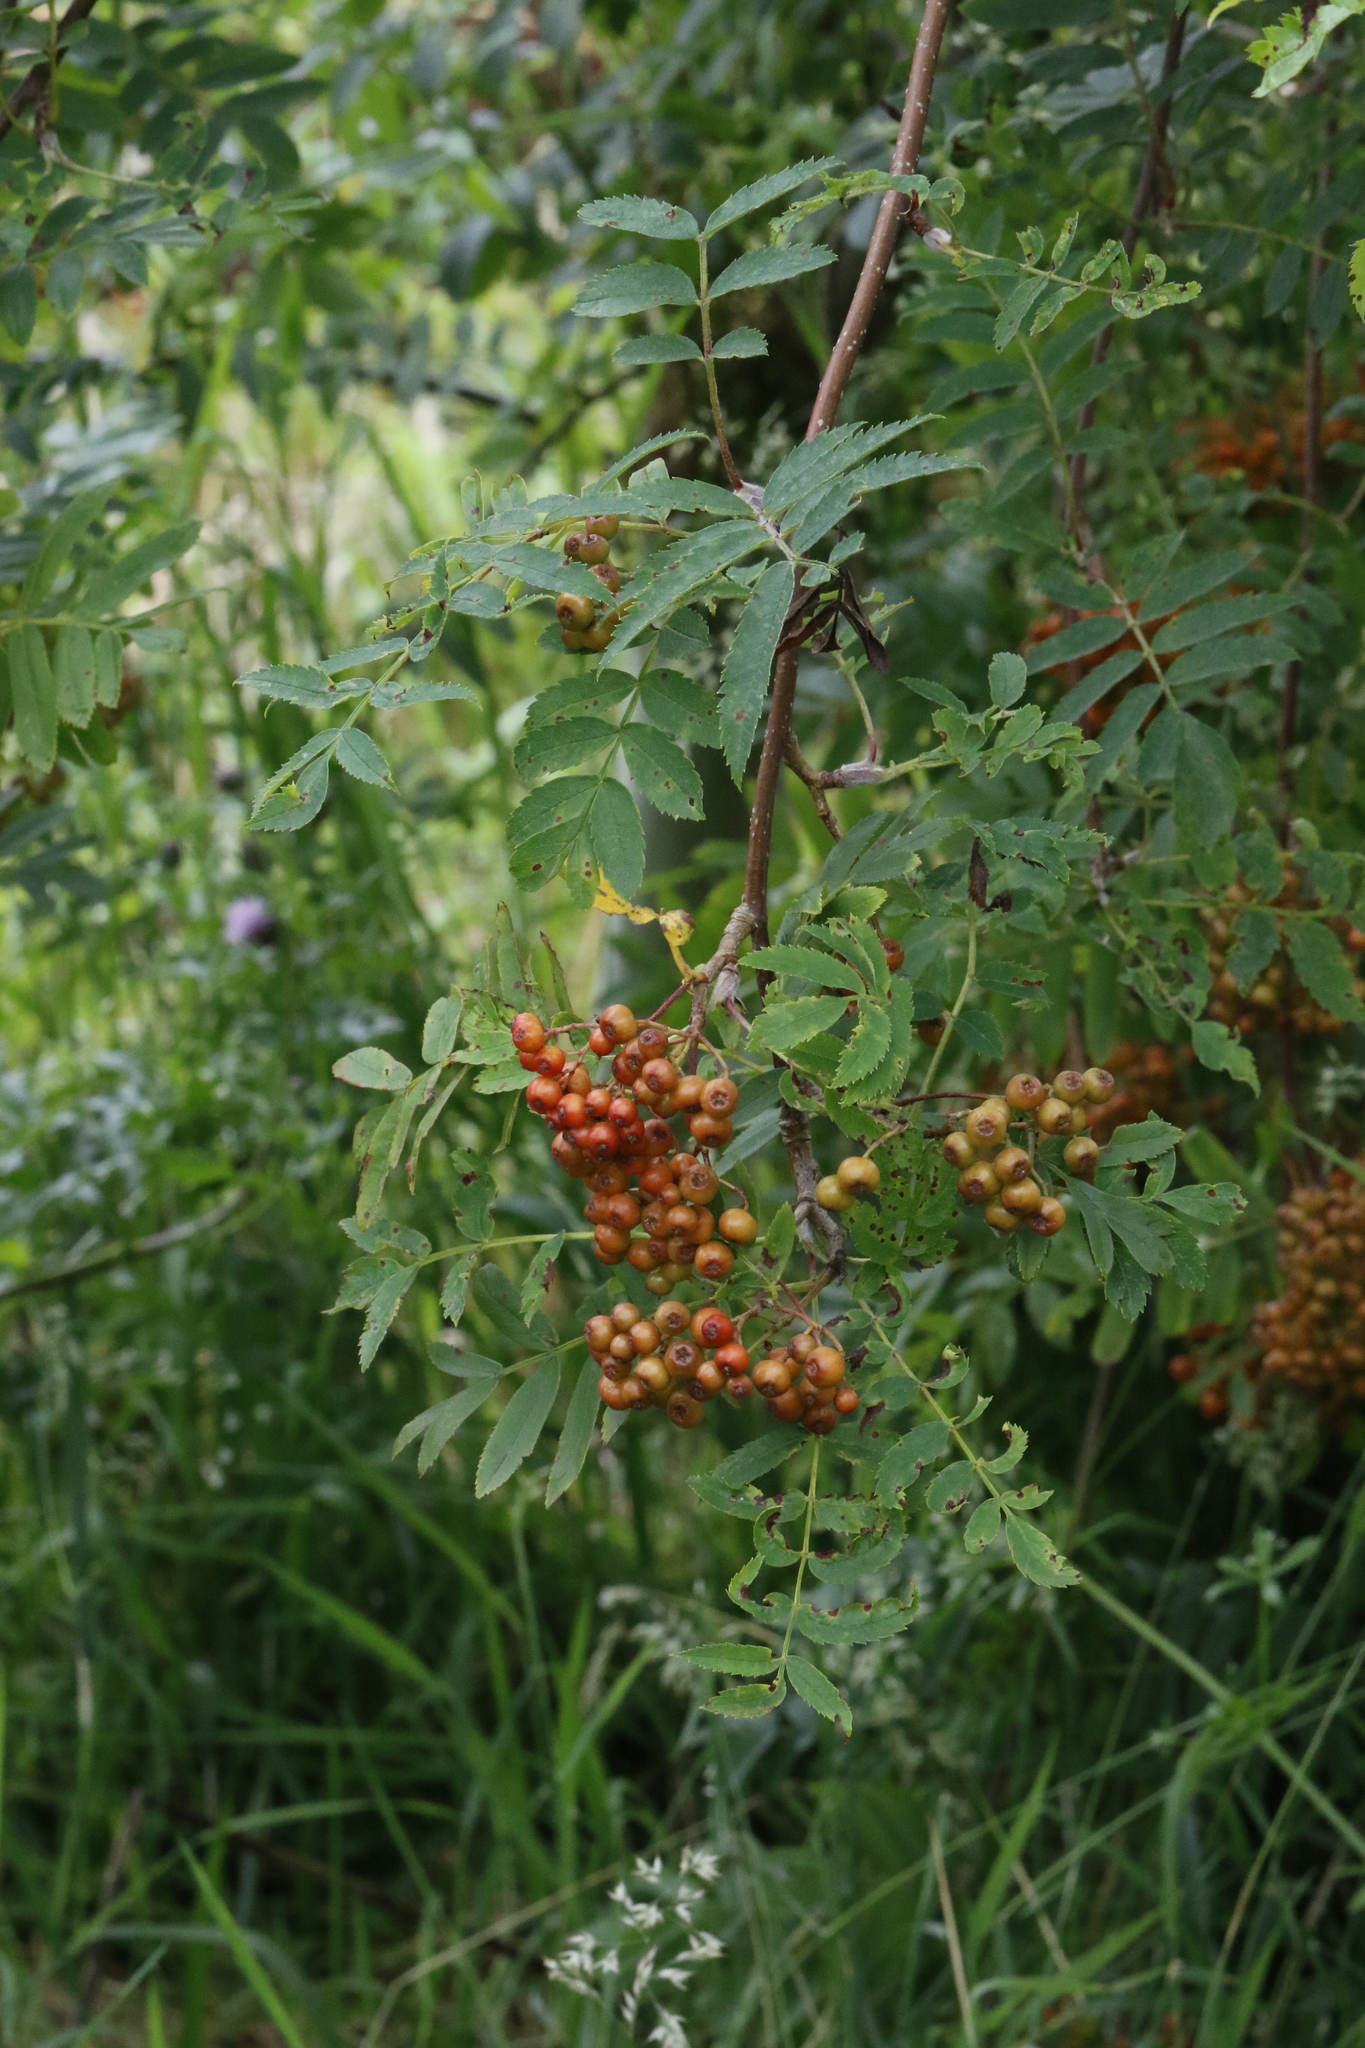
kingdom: Plantae
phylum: Tracheophyta
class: Magnoliopsida
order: Rosales
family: Rosaceae
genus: Sorbus
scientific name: Sorbus aucuparia
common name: Rowan
